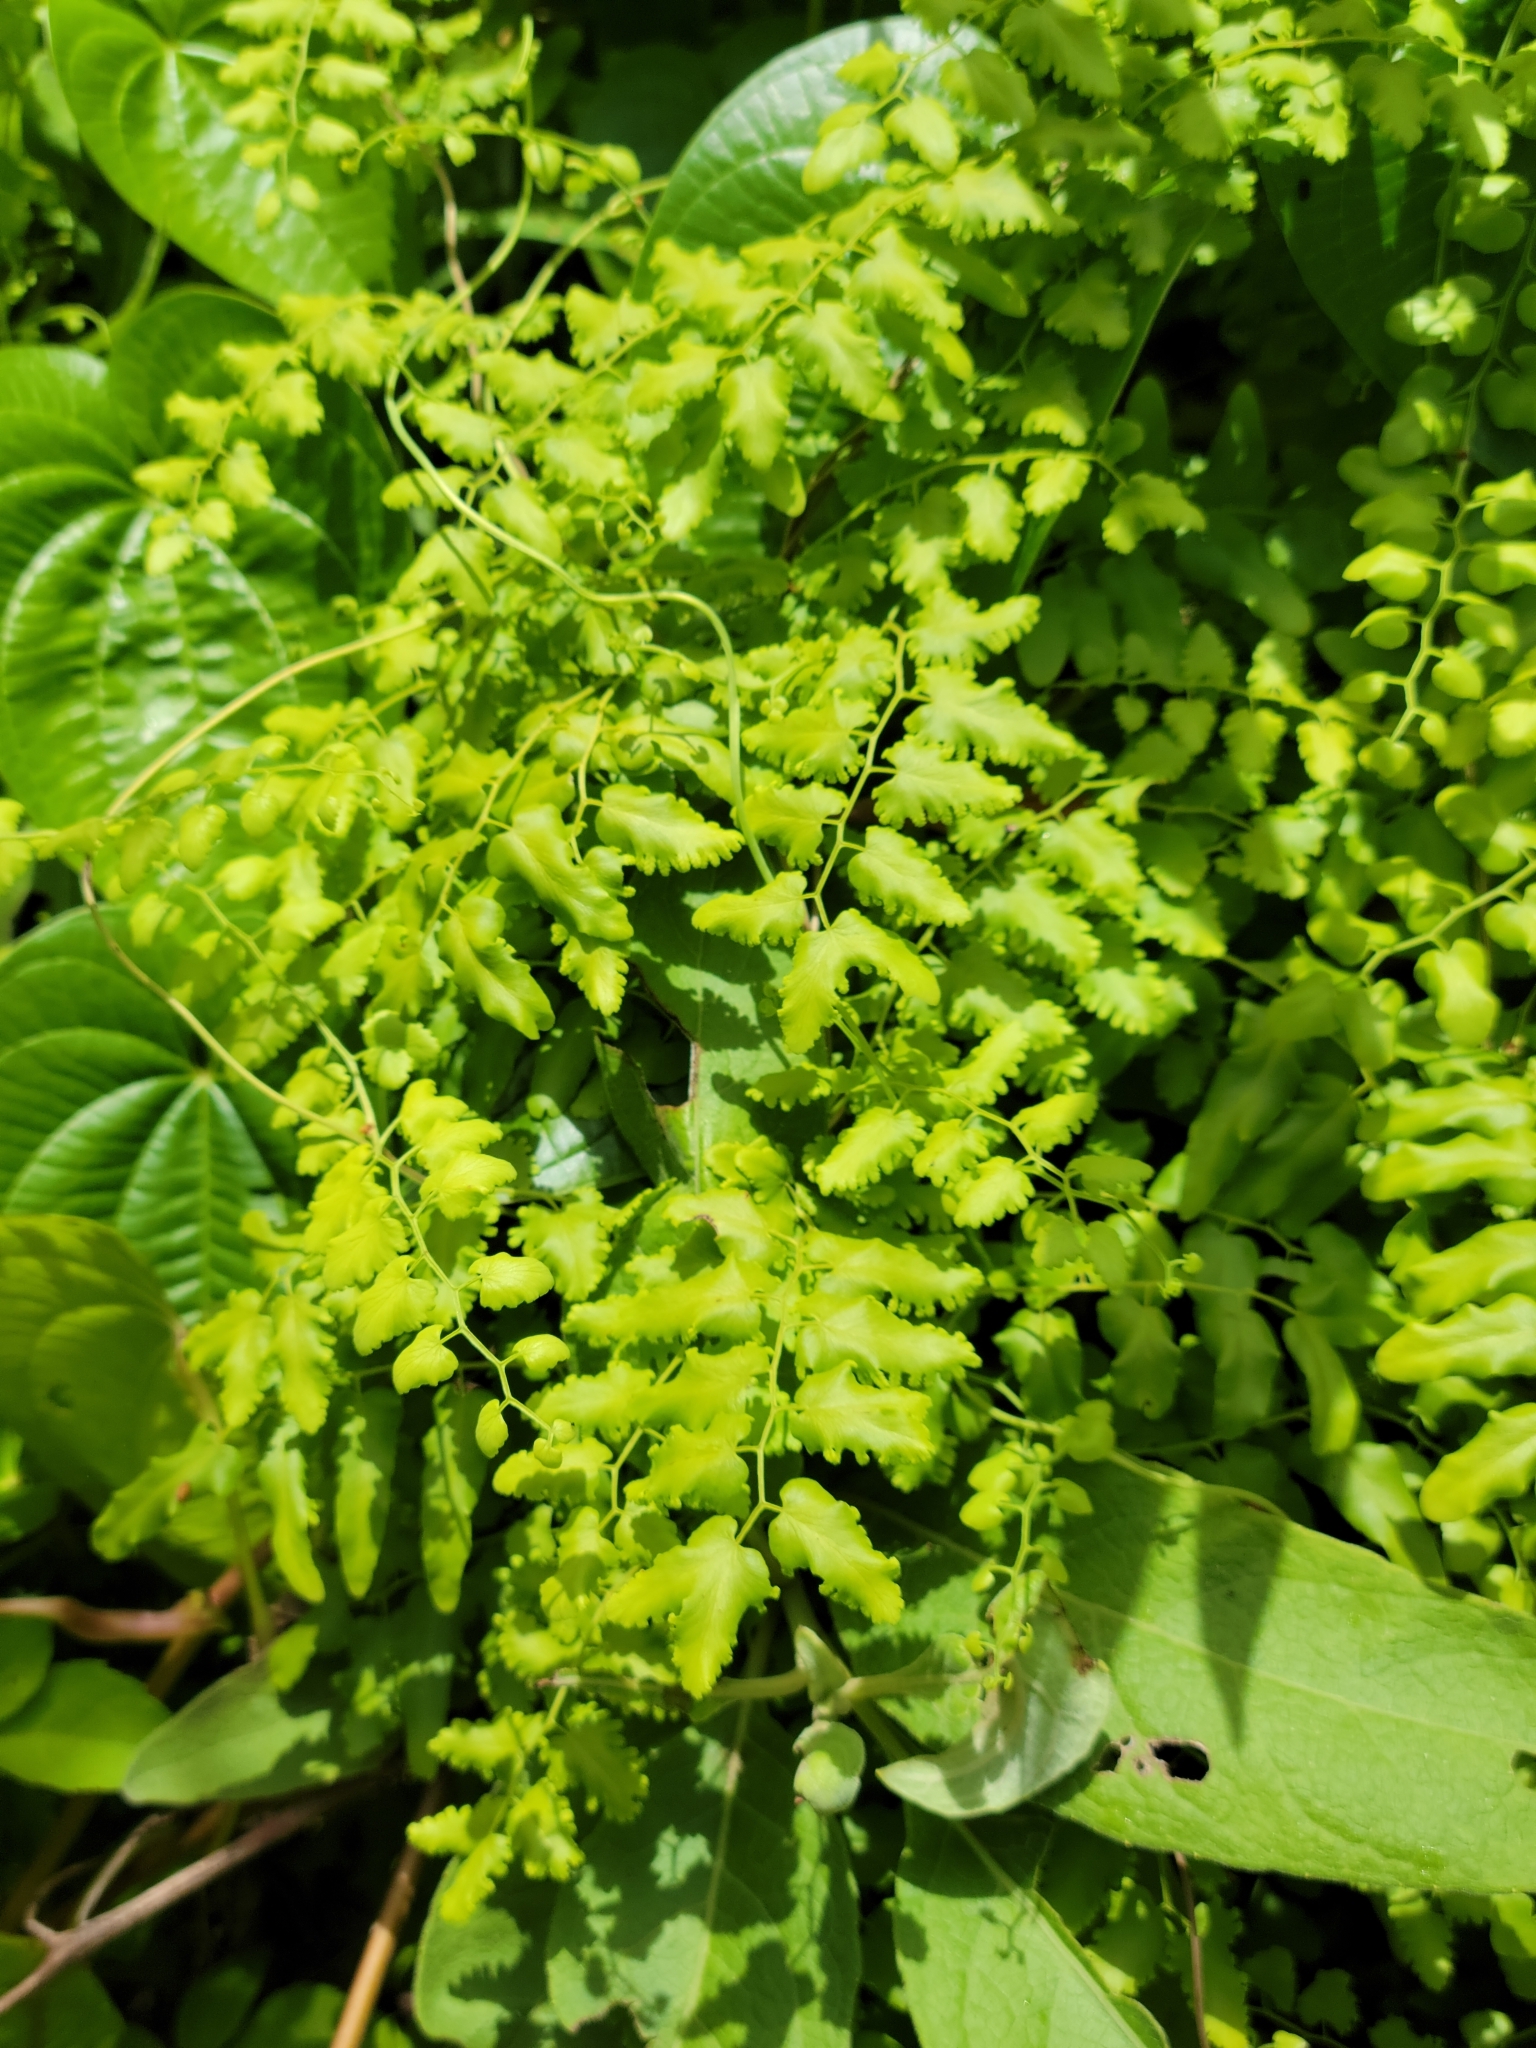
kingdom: Plantae
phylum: Tracheophyta
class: Polypodiopsida
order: Schizaeales
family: Lygodiaceae
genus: Lygodium
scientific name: Lygodium microphyllum
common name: Small-leaf climbing fern
